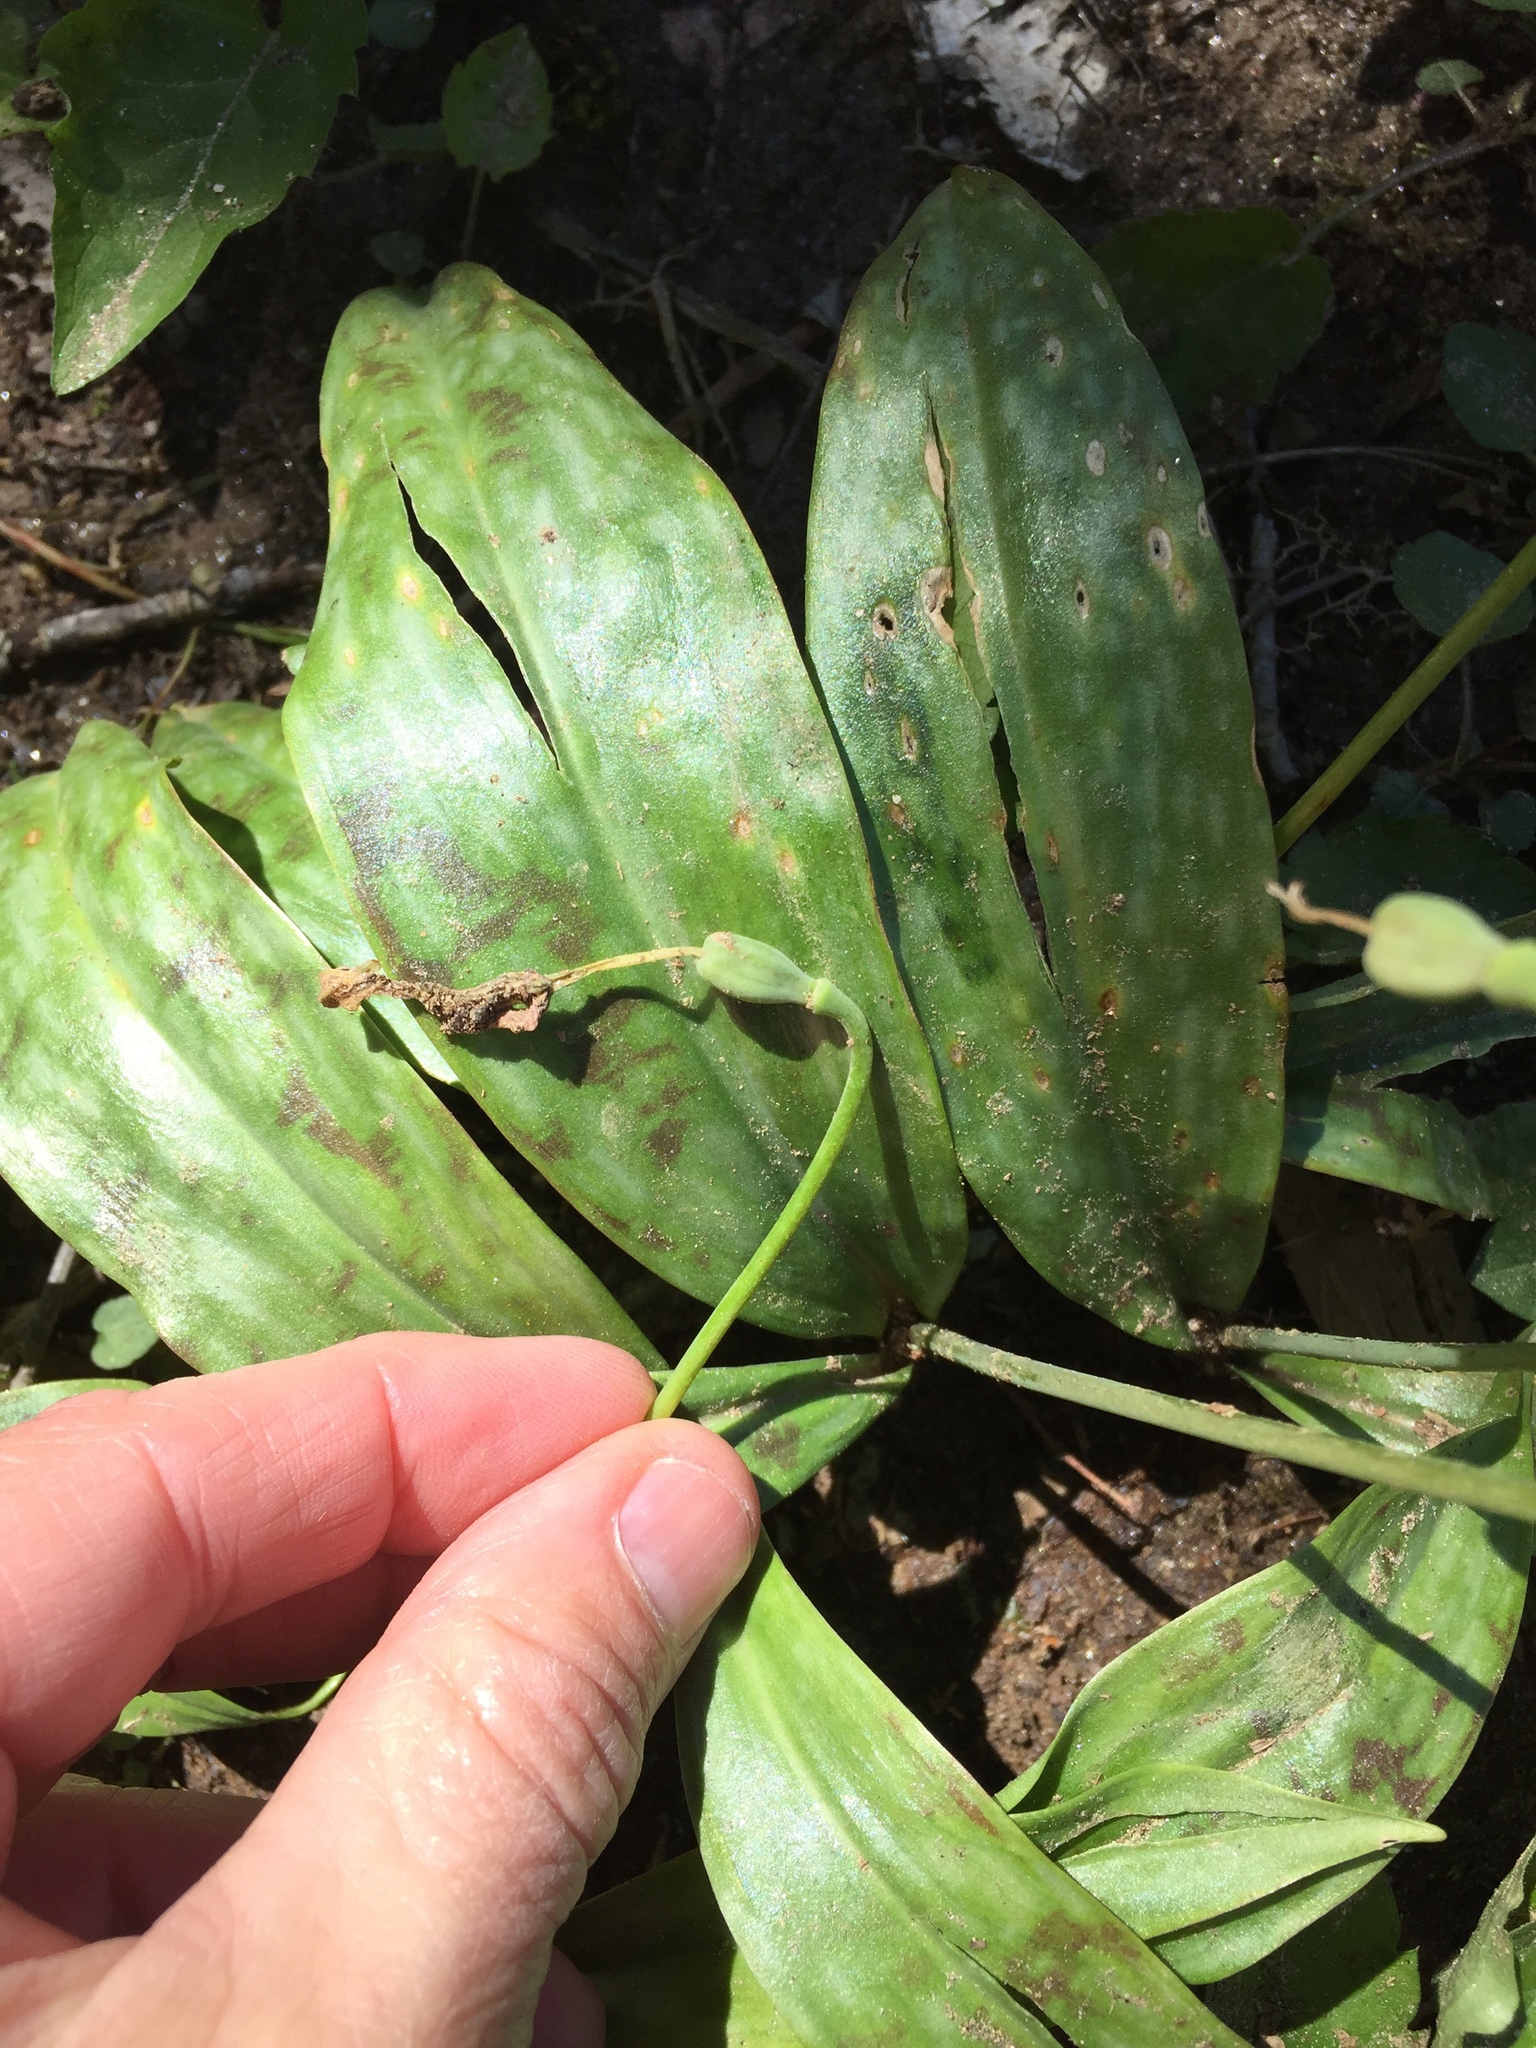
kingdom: Plantae
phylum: Tracheophyta
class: Liliopsida
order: Liliales
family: Liliaceae
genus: Erythronium
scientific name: Erythronium umbilicatum
